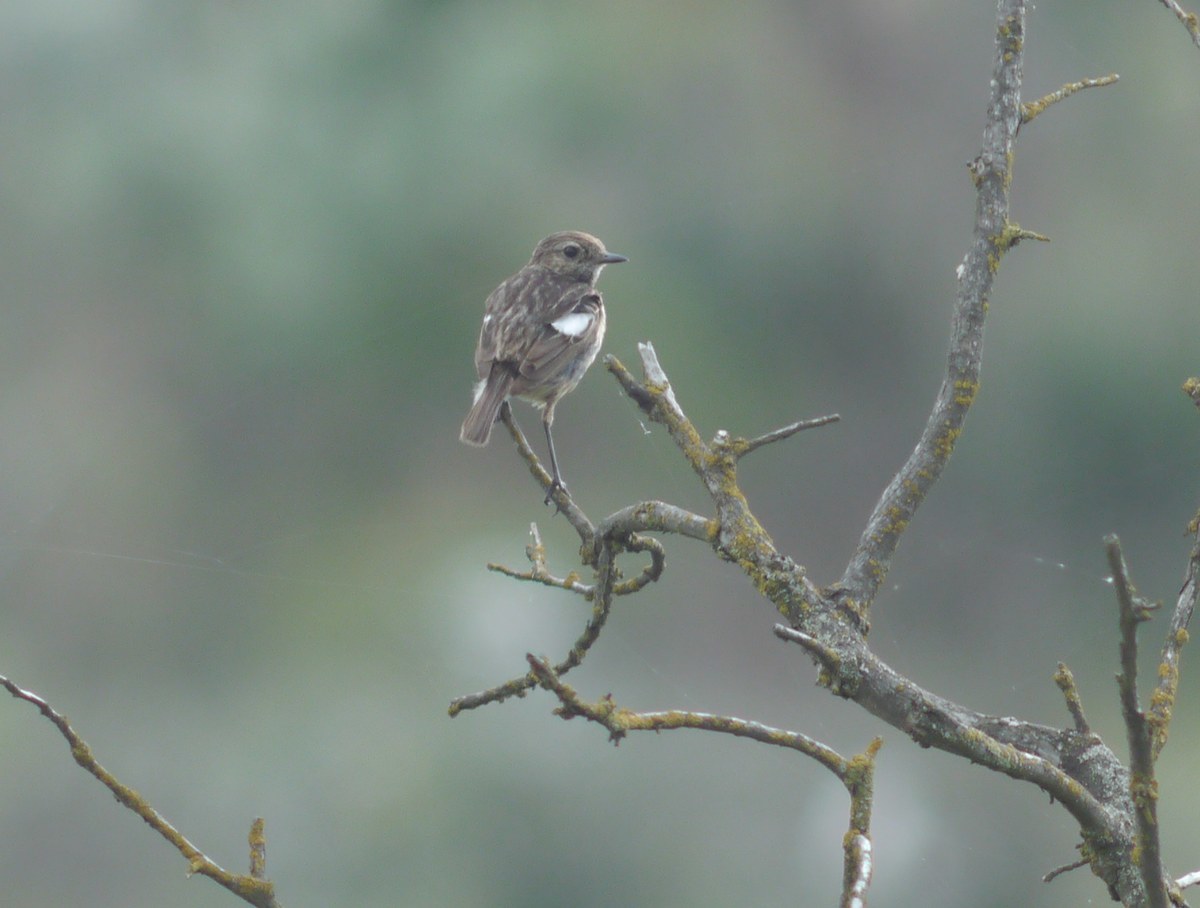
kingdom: Animalia
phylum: Chordata
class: Aves
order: Passeriformes
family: Muscicapidae
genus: Saxicola
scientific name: Saxicola rubicola
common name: European stonechat
